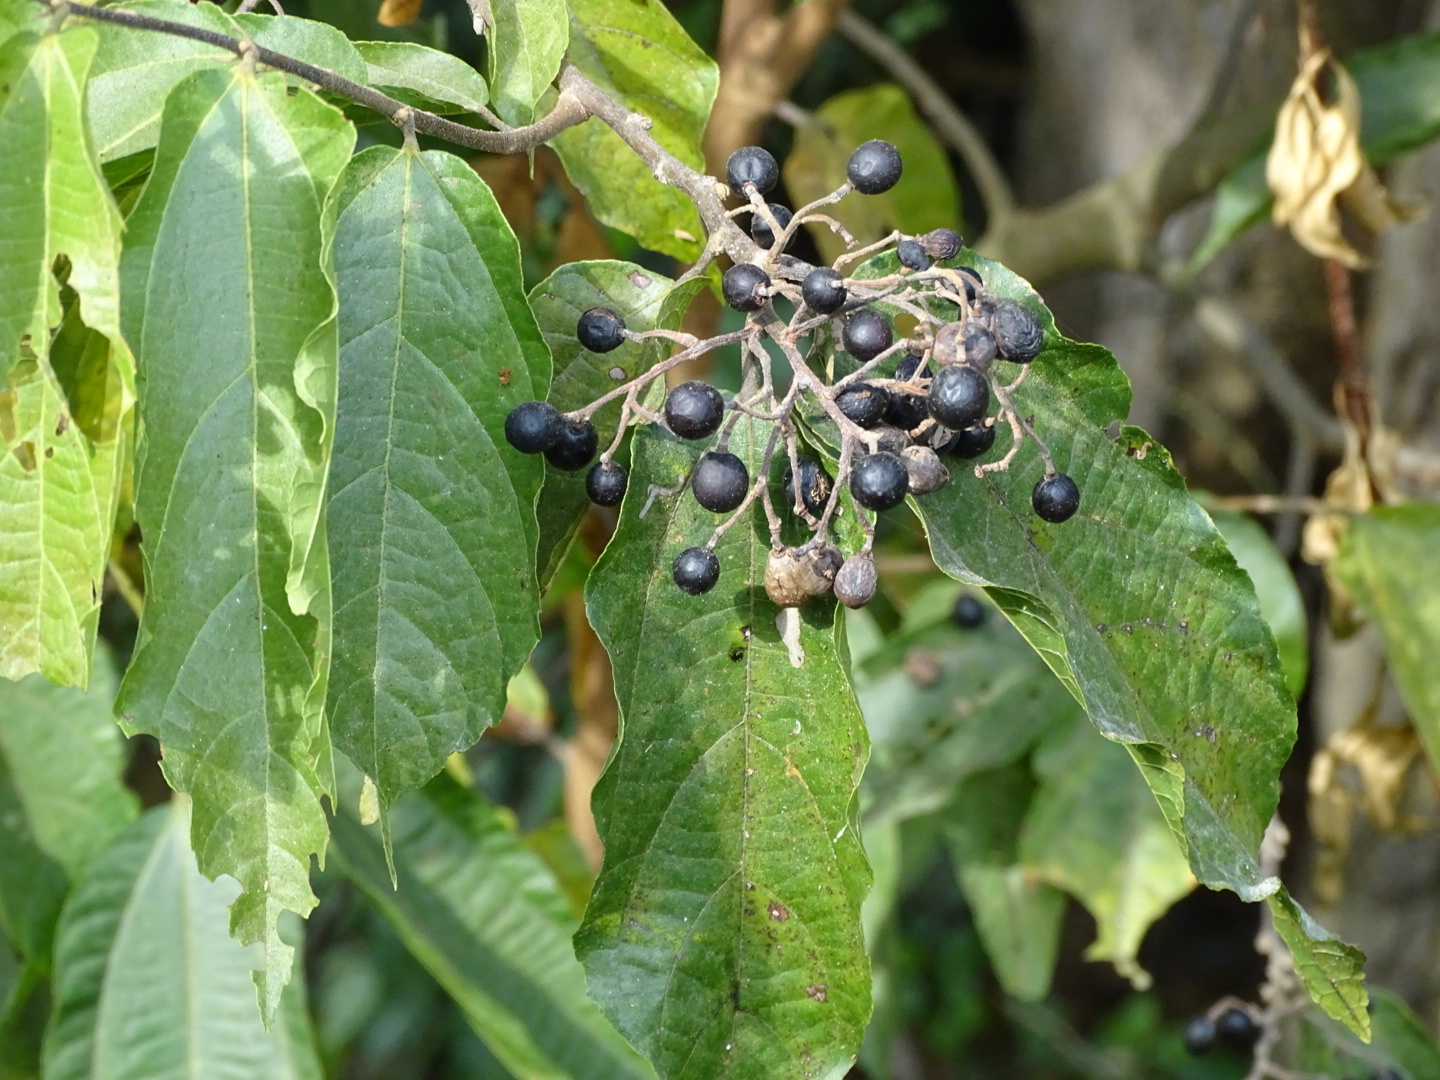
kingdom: Plantae
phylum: Tracheophyta
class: Magnoliopsida
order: Malvales
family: Malvaceae
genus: Microcos
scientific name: Microcos paniculata
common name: Microcos
